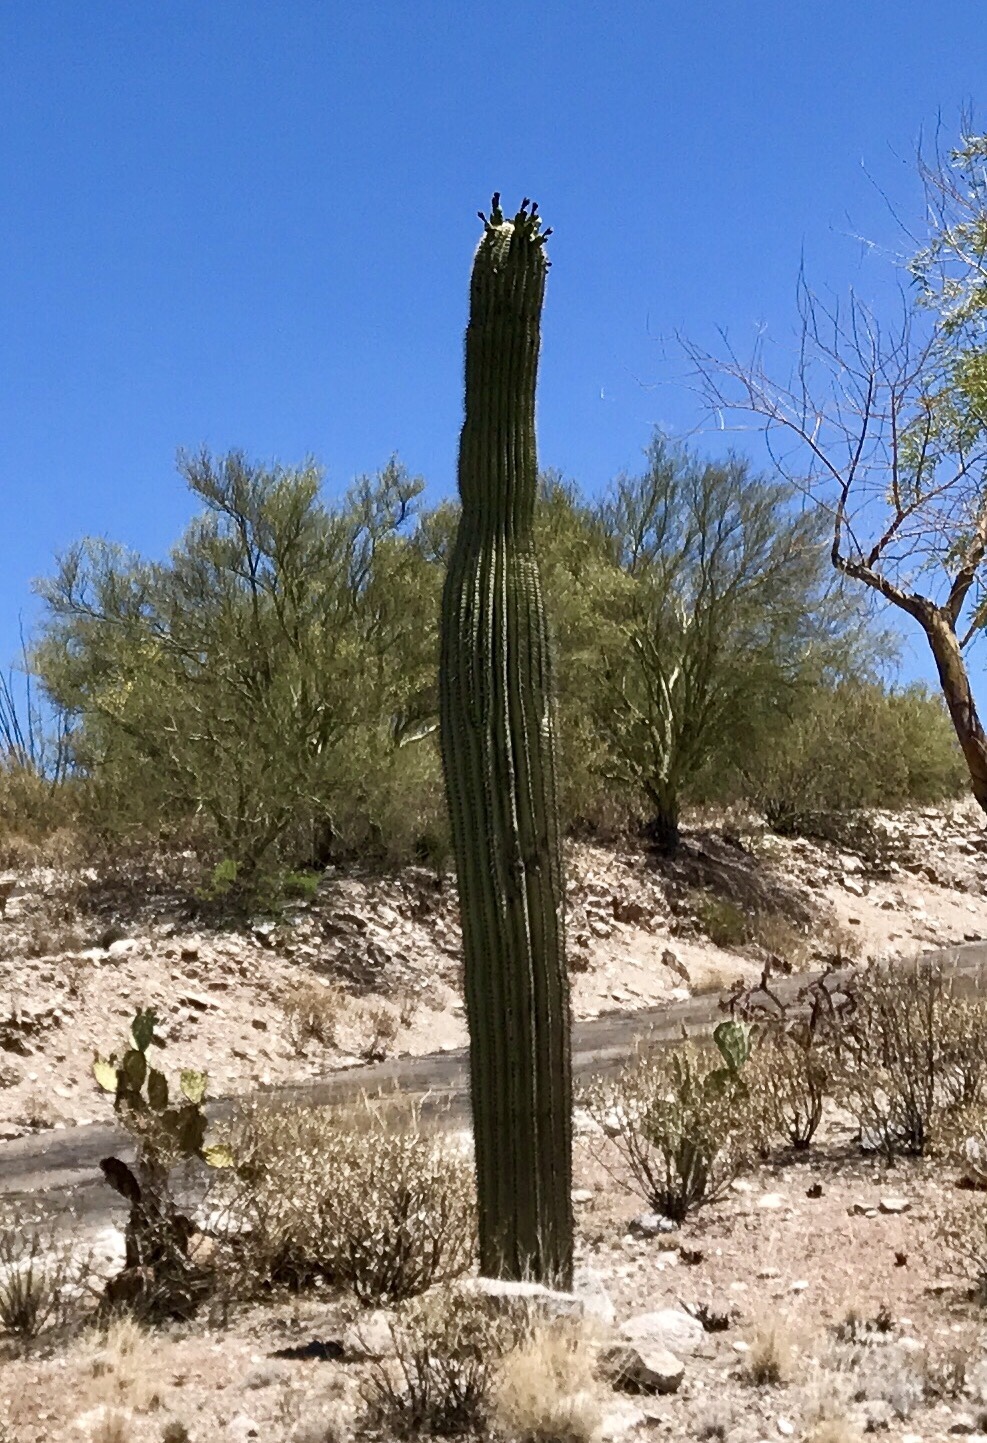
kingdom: Plantae
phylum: Tracheophyta
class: Magnoliopsida
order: Caryophyllales
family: Cactaceae
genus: Carnegiea
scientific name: Carnegiea gigantea
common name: Saguaro
